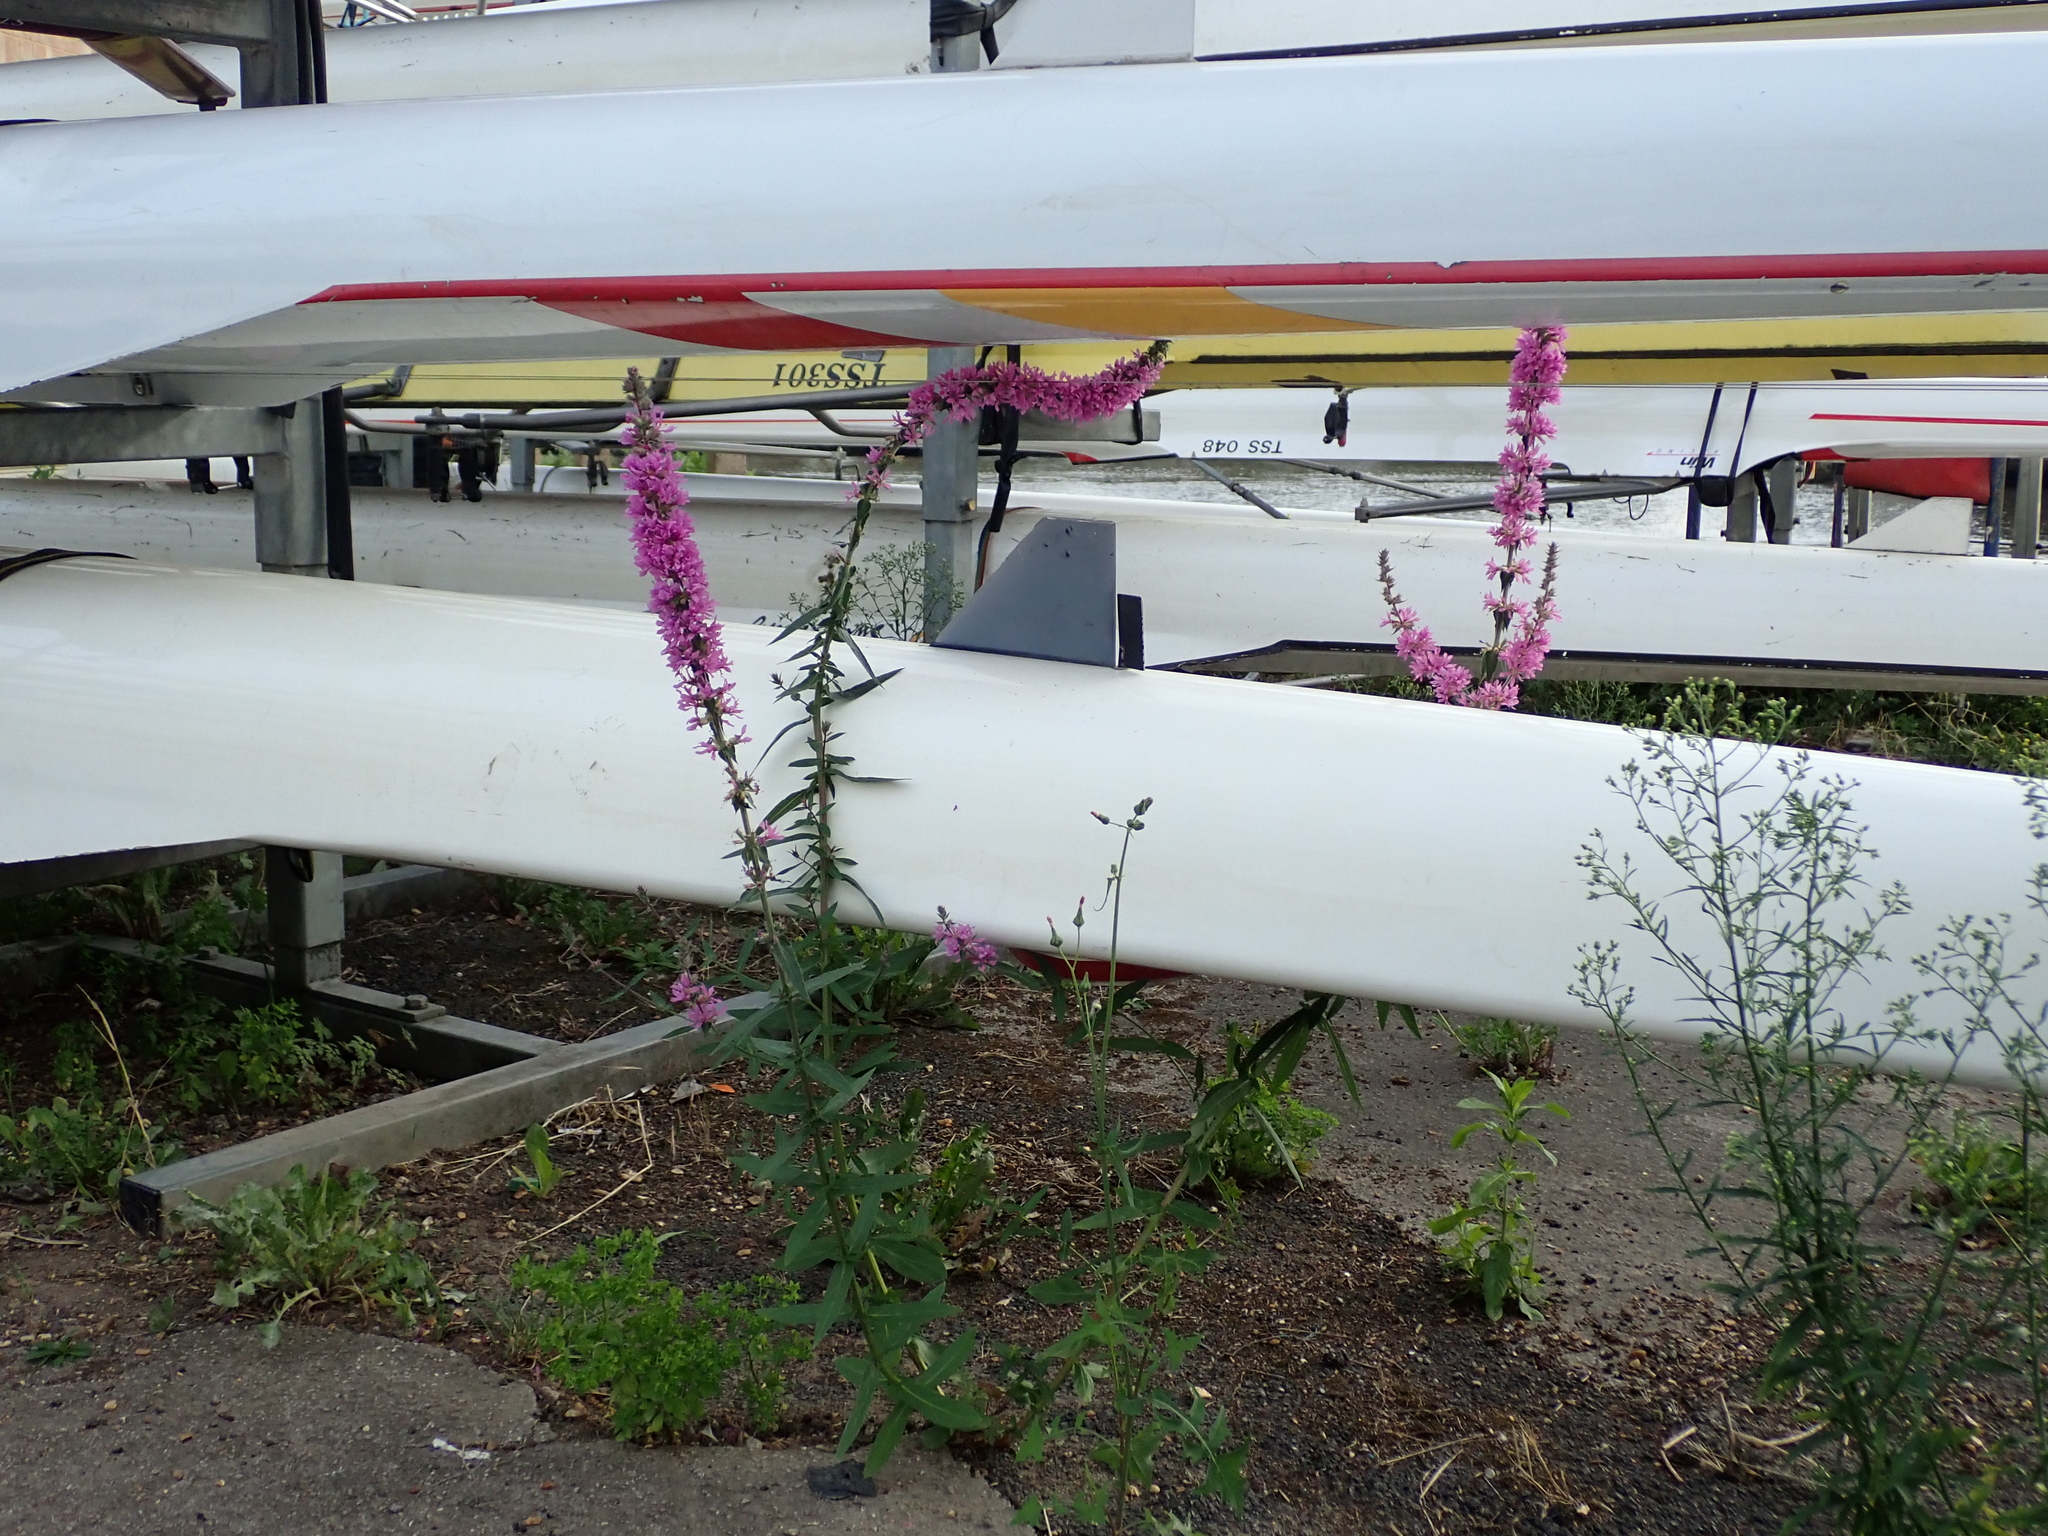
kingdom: Plantae
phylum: Tracheophyta
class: Magnoliopsida
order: Myrtales
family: Lythraceae
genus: Lythrum
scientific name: Lythrum salicaria
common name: Purple loosestrife
